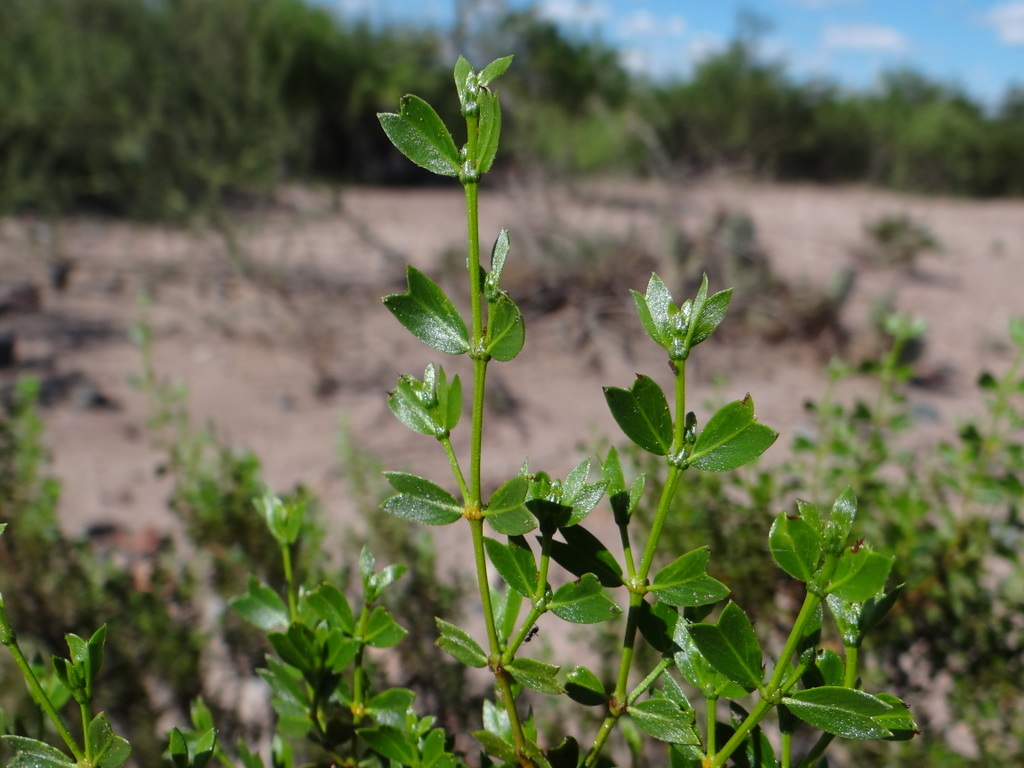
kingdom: Plantae
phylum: Tracheophyta
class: Magnoliopsida
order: Zygophyllales
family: Zygophyllaceae
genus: Larrea
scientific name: Larrea cuneifolia
